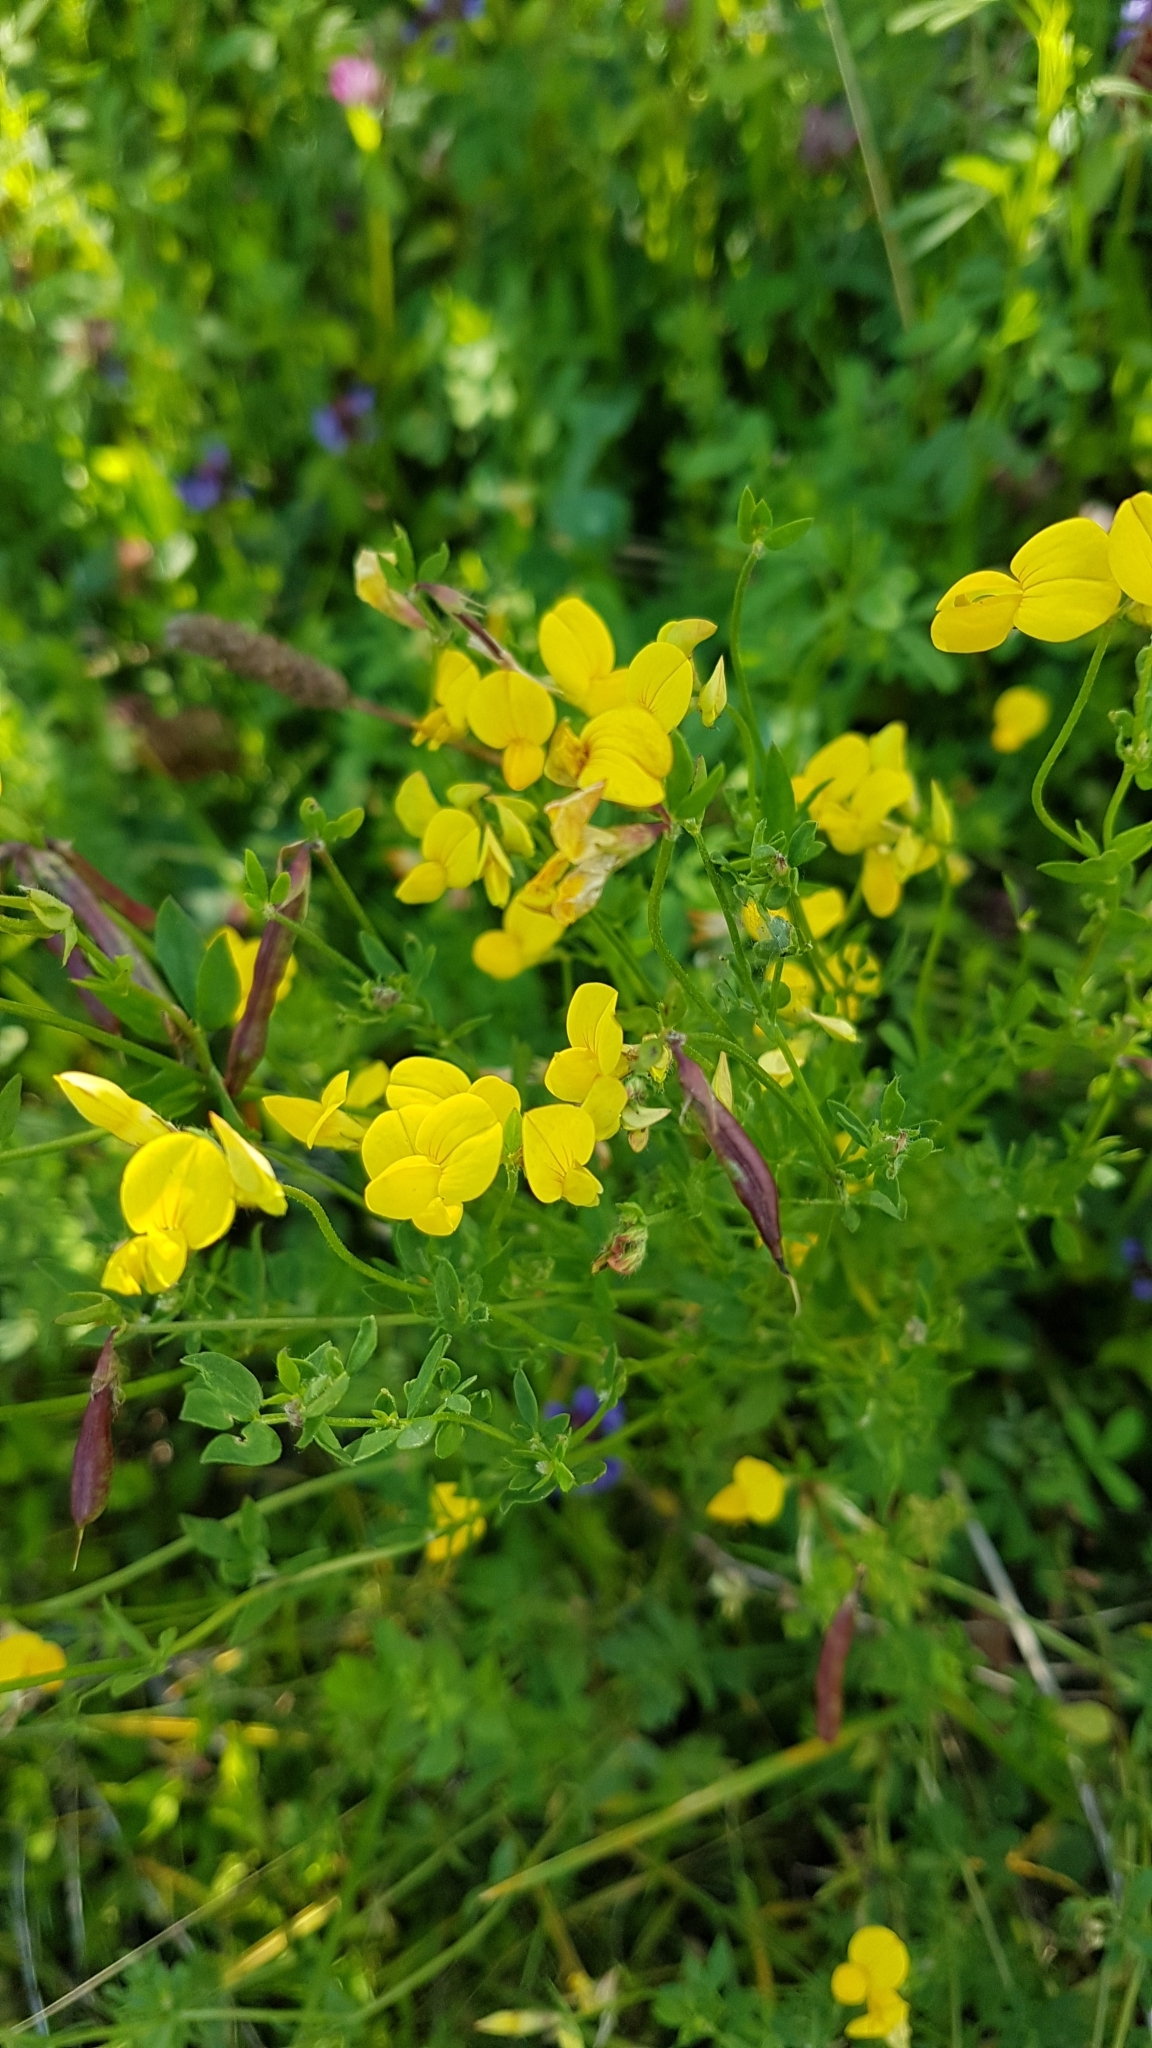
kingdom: Plantae
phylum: Tracheophyta
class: Magnoliopsida
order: Fabales
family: Fabaceae
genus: Lotus
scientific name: Lotus corniculatus
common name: Common bird's-foot-trefoil
